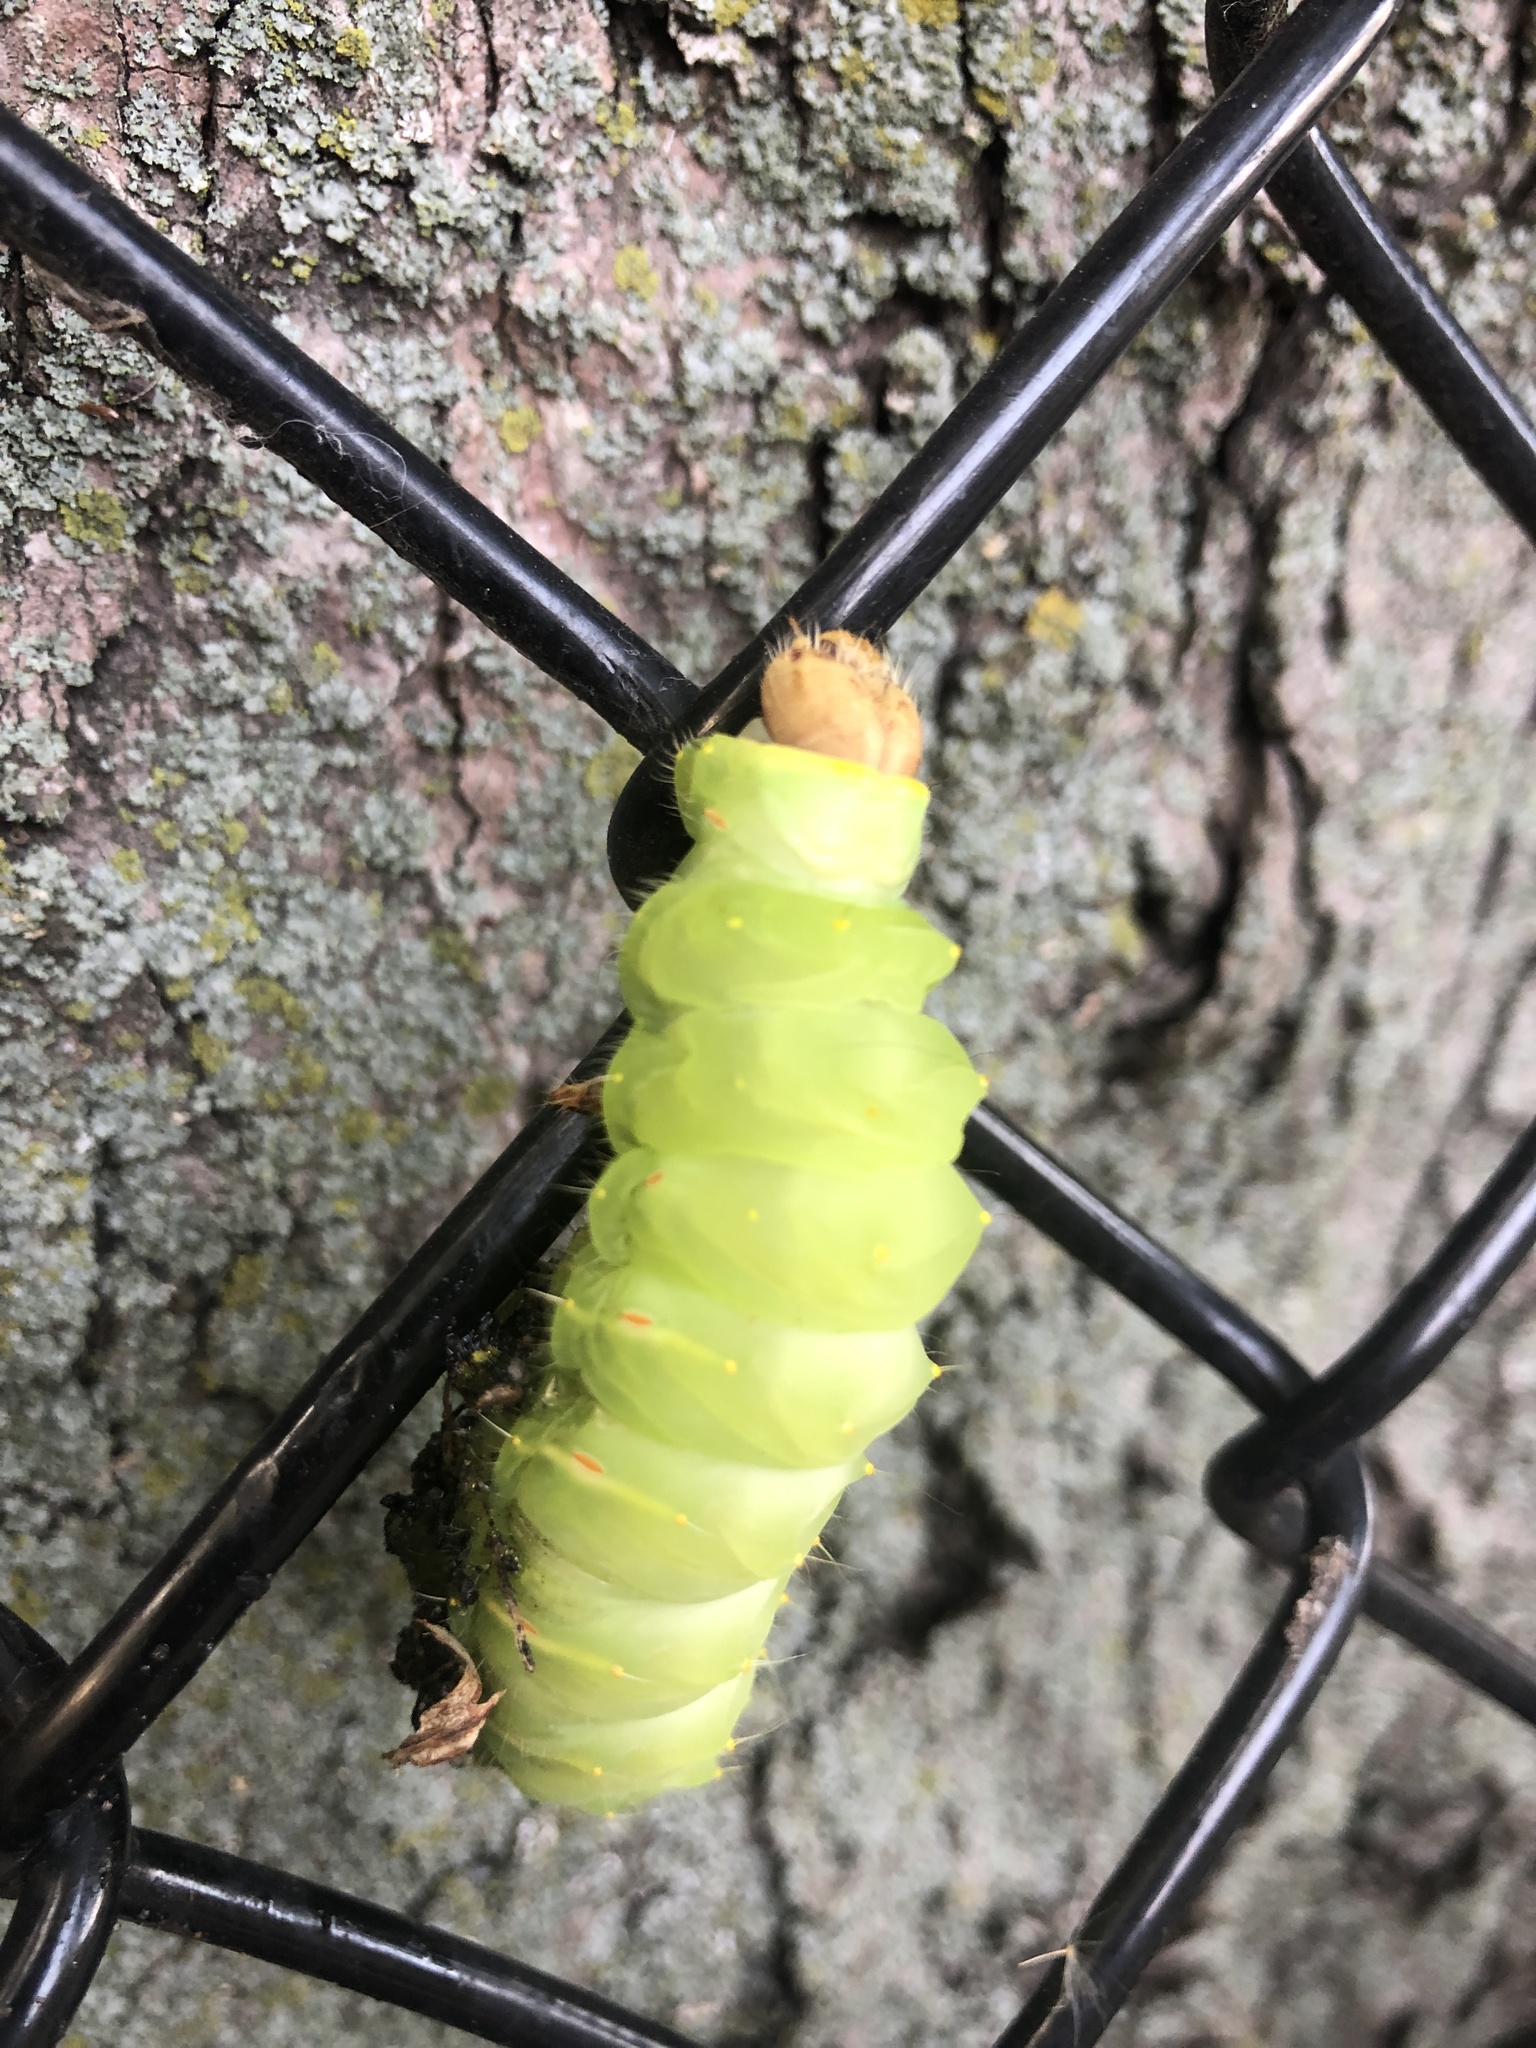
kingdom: Animalia
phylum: Arthropoda
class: Insecta
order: Lepidoptera
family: Saturniidae
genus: Antheraea
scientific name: Antheraea polyphemus
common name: Polyphemus moth
